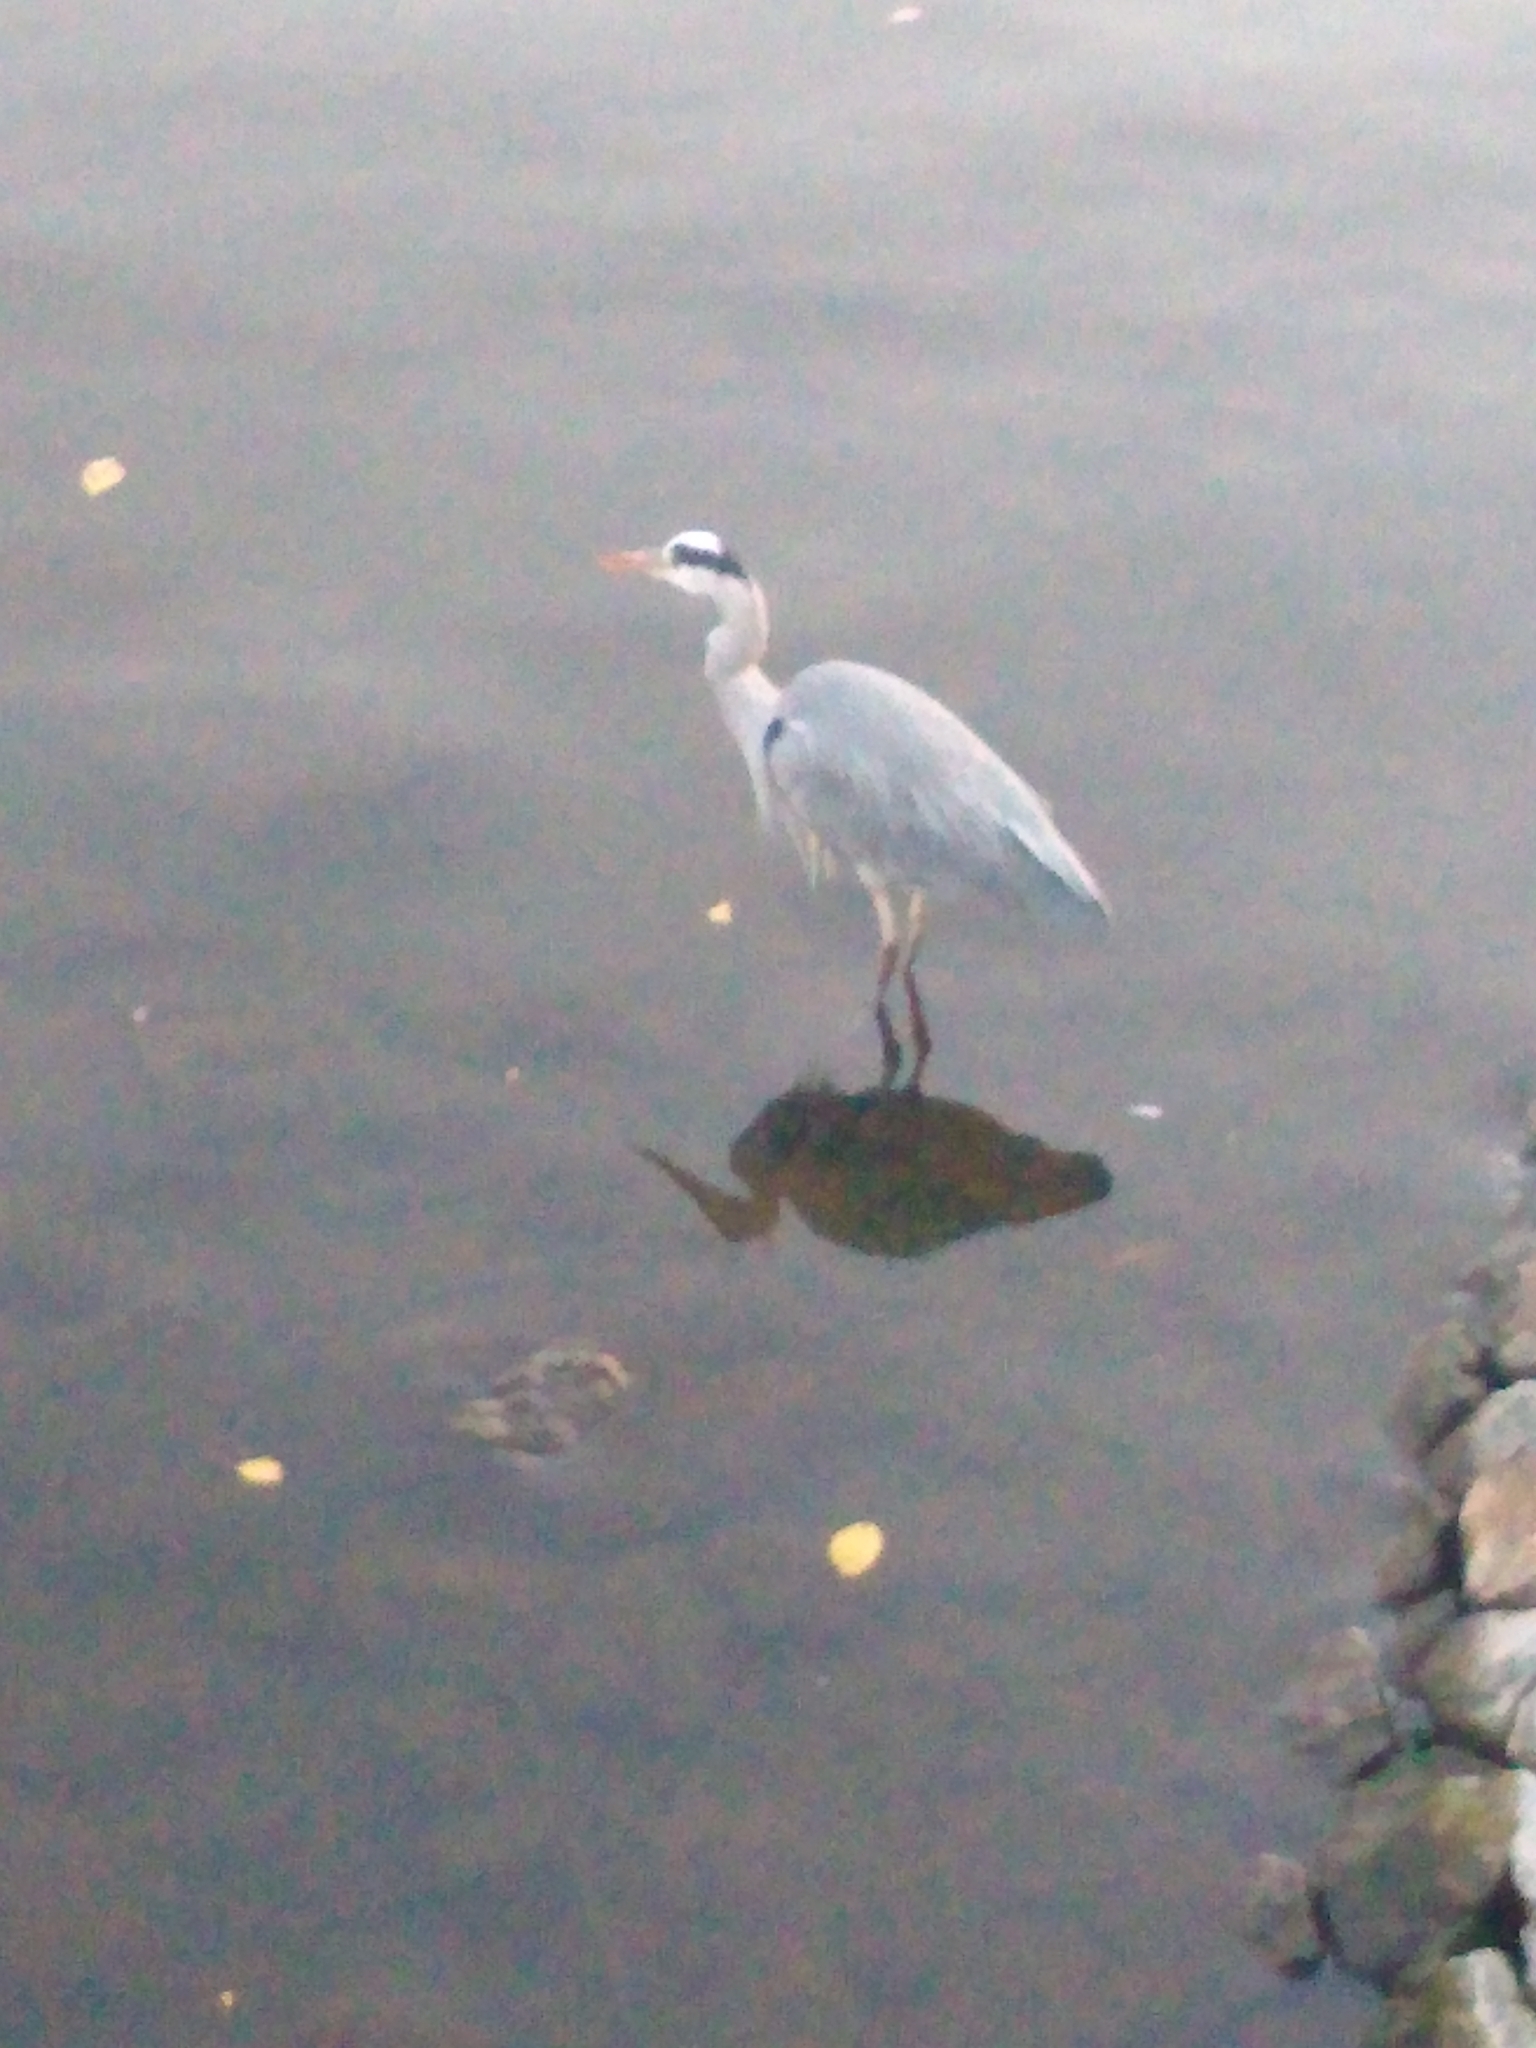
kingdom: Animalia
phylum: Chordata
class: Aves
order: Pelecaniformes
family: Ardeidae
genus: Ardea
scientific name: Ardea cinerea
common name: Grey heron
